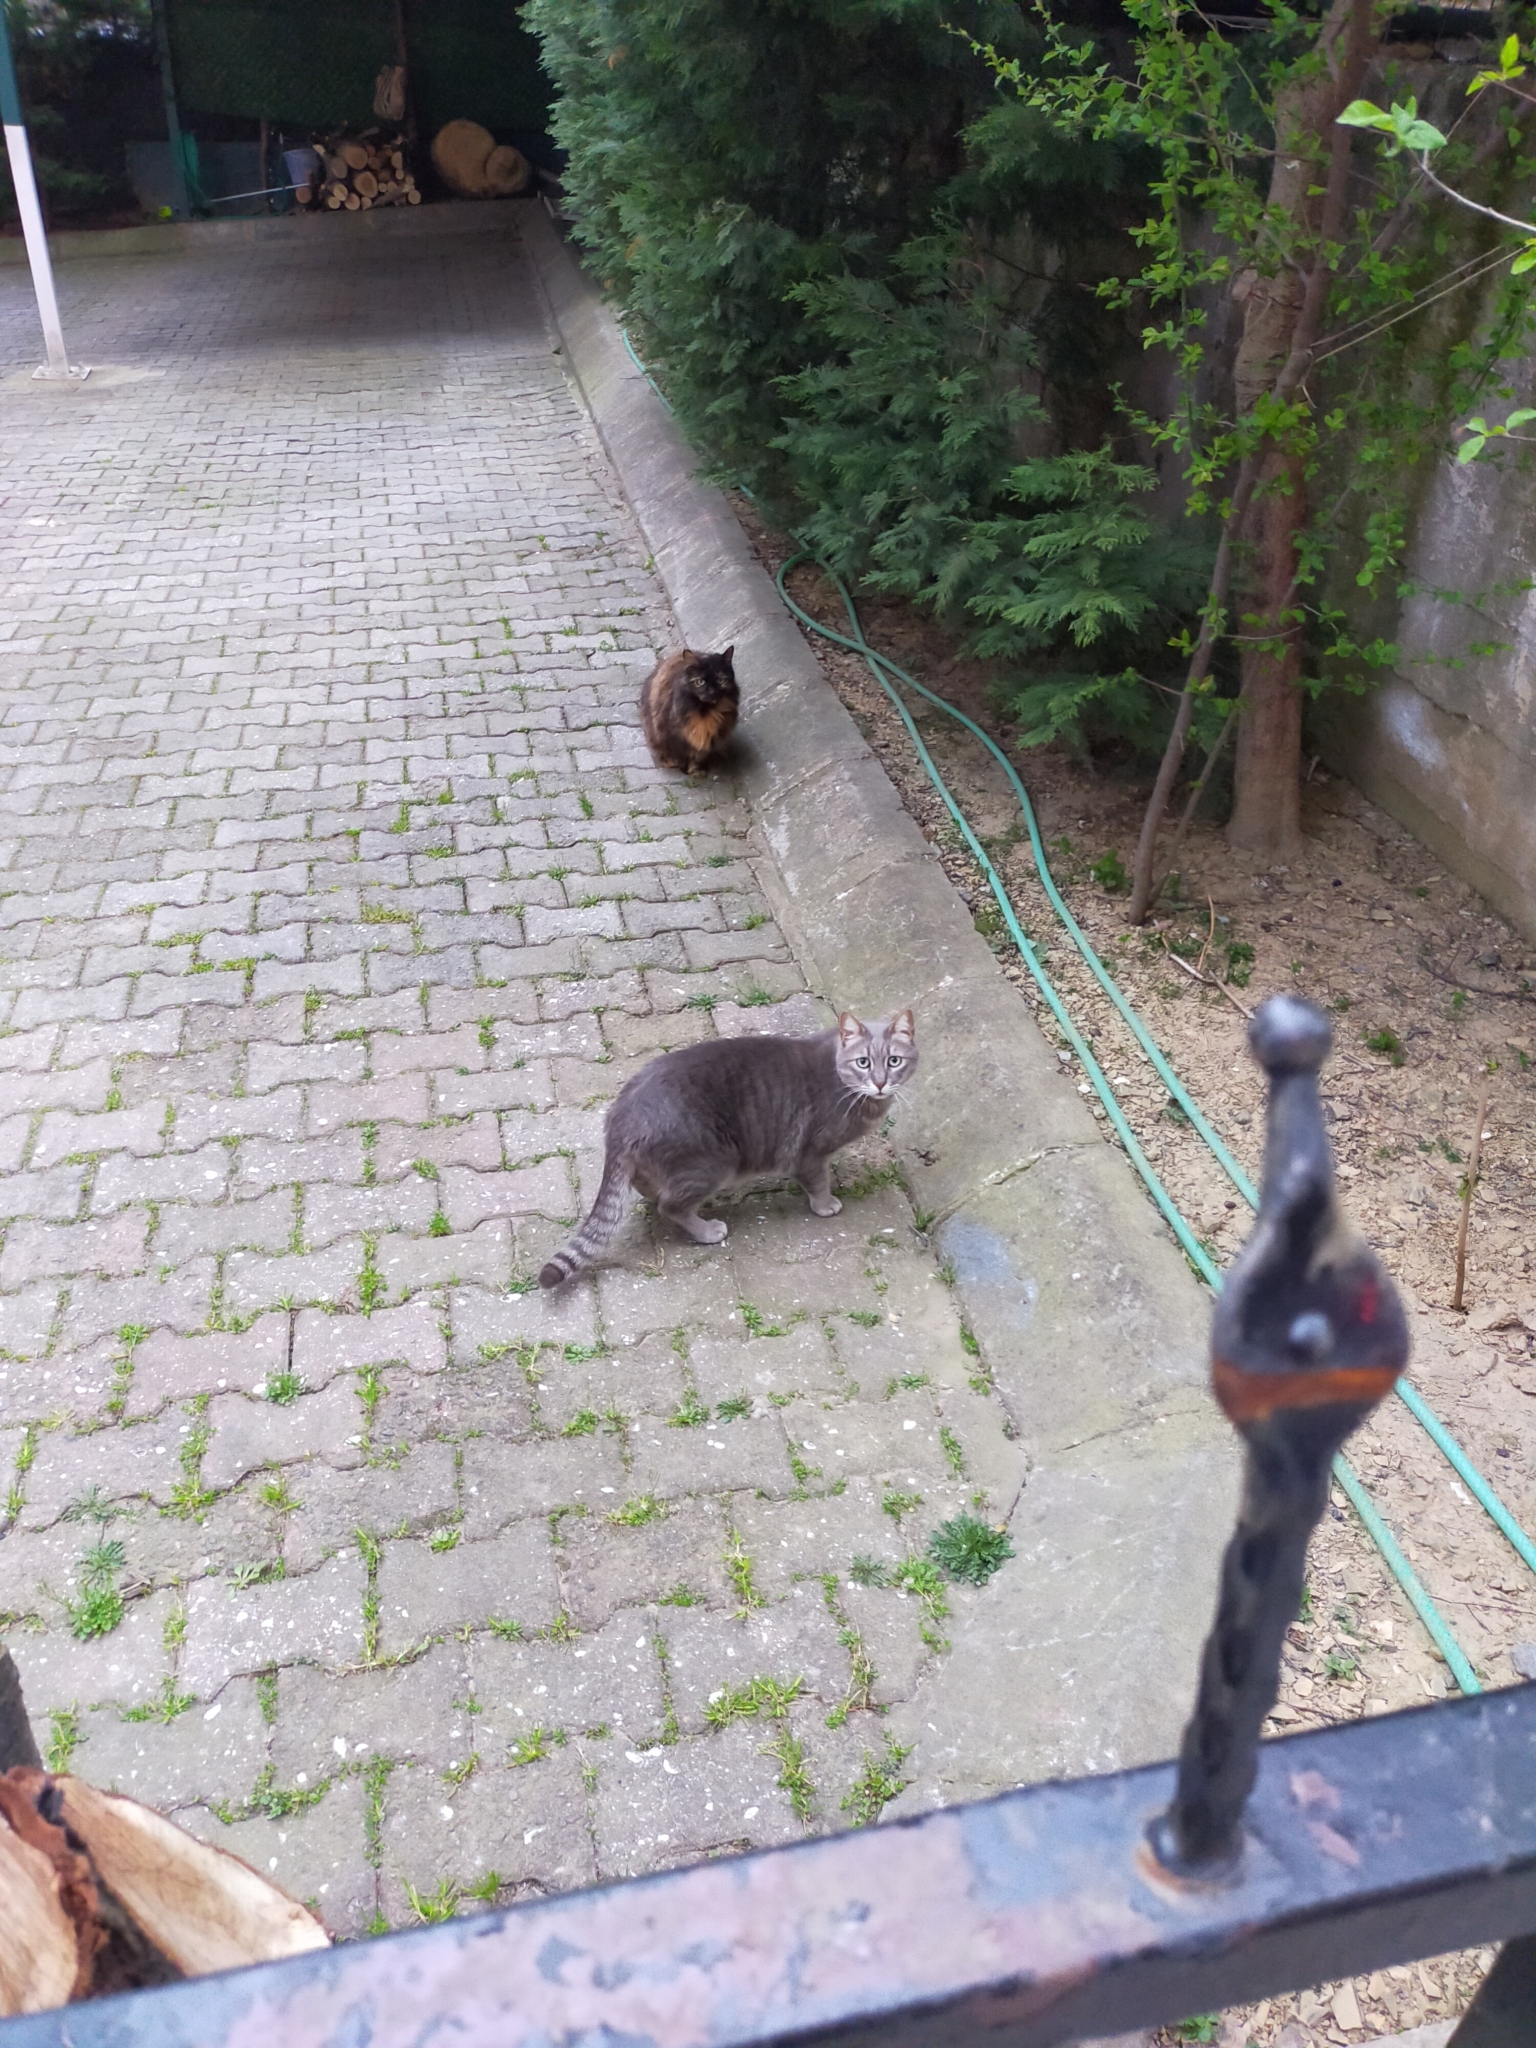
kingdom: Animalia
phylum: Chordata
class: Mammalia
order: Carnivora
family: Felidae
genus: Felis
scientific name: Felis catus
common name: Domestic cat
